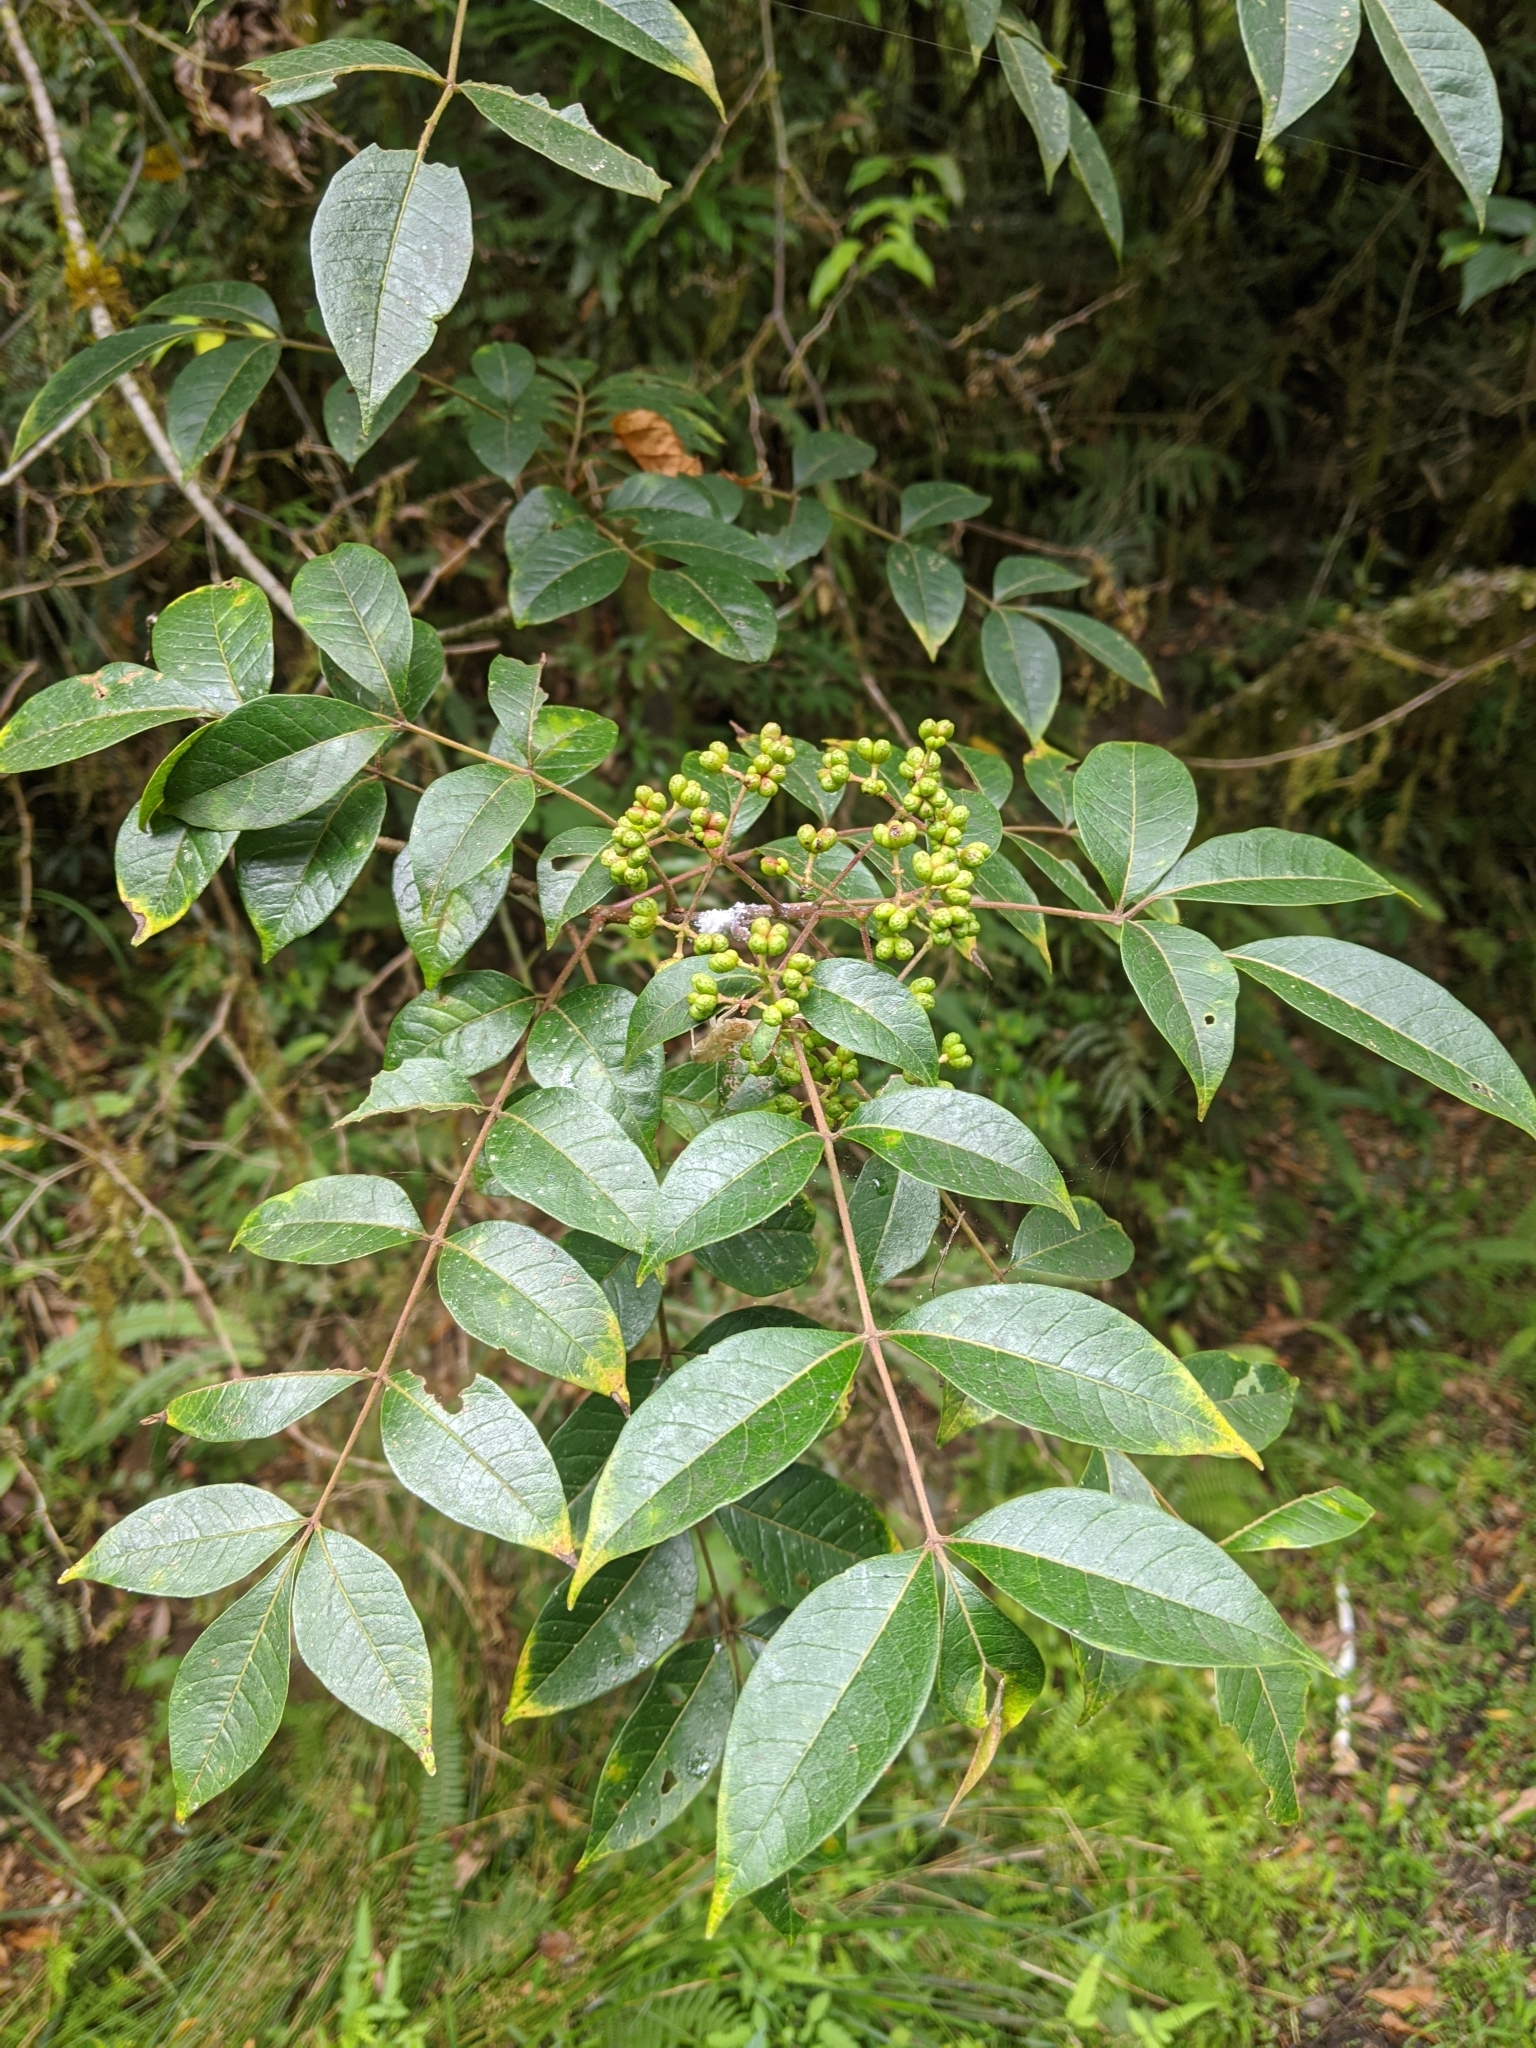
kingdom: Plantae
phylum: Tracheophyta
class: Magnoliopsida
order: Sapindales
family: Rutaceae
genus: Tetradium
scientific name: Tetradium glabrifolium
